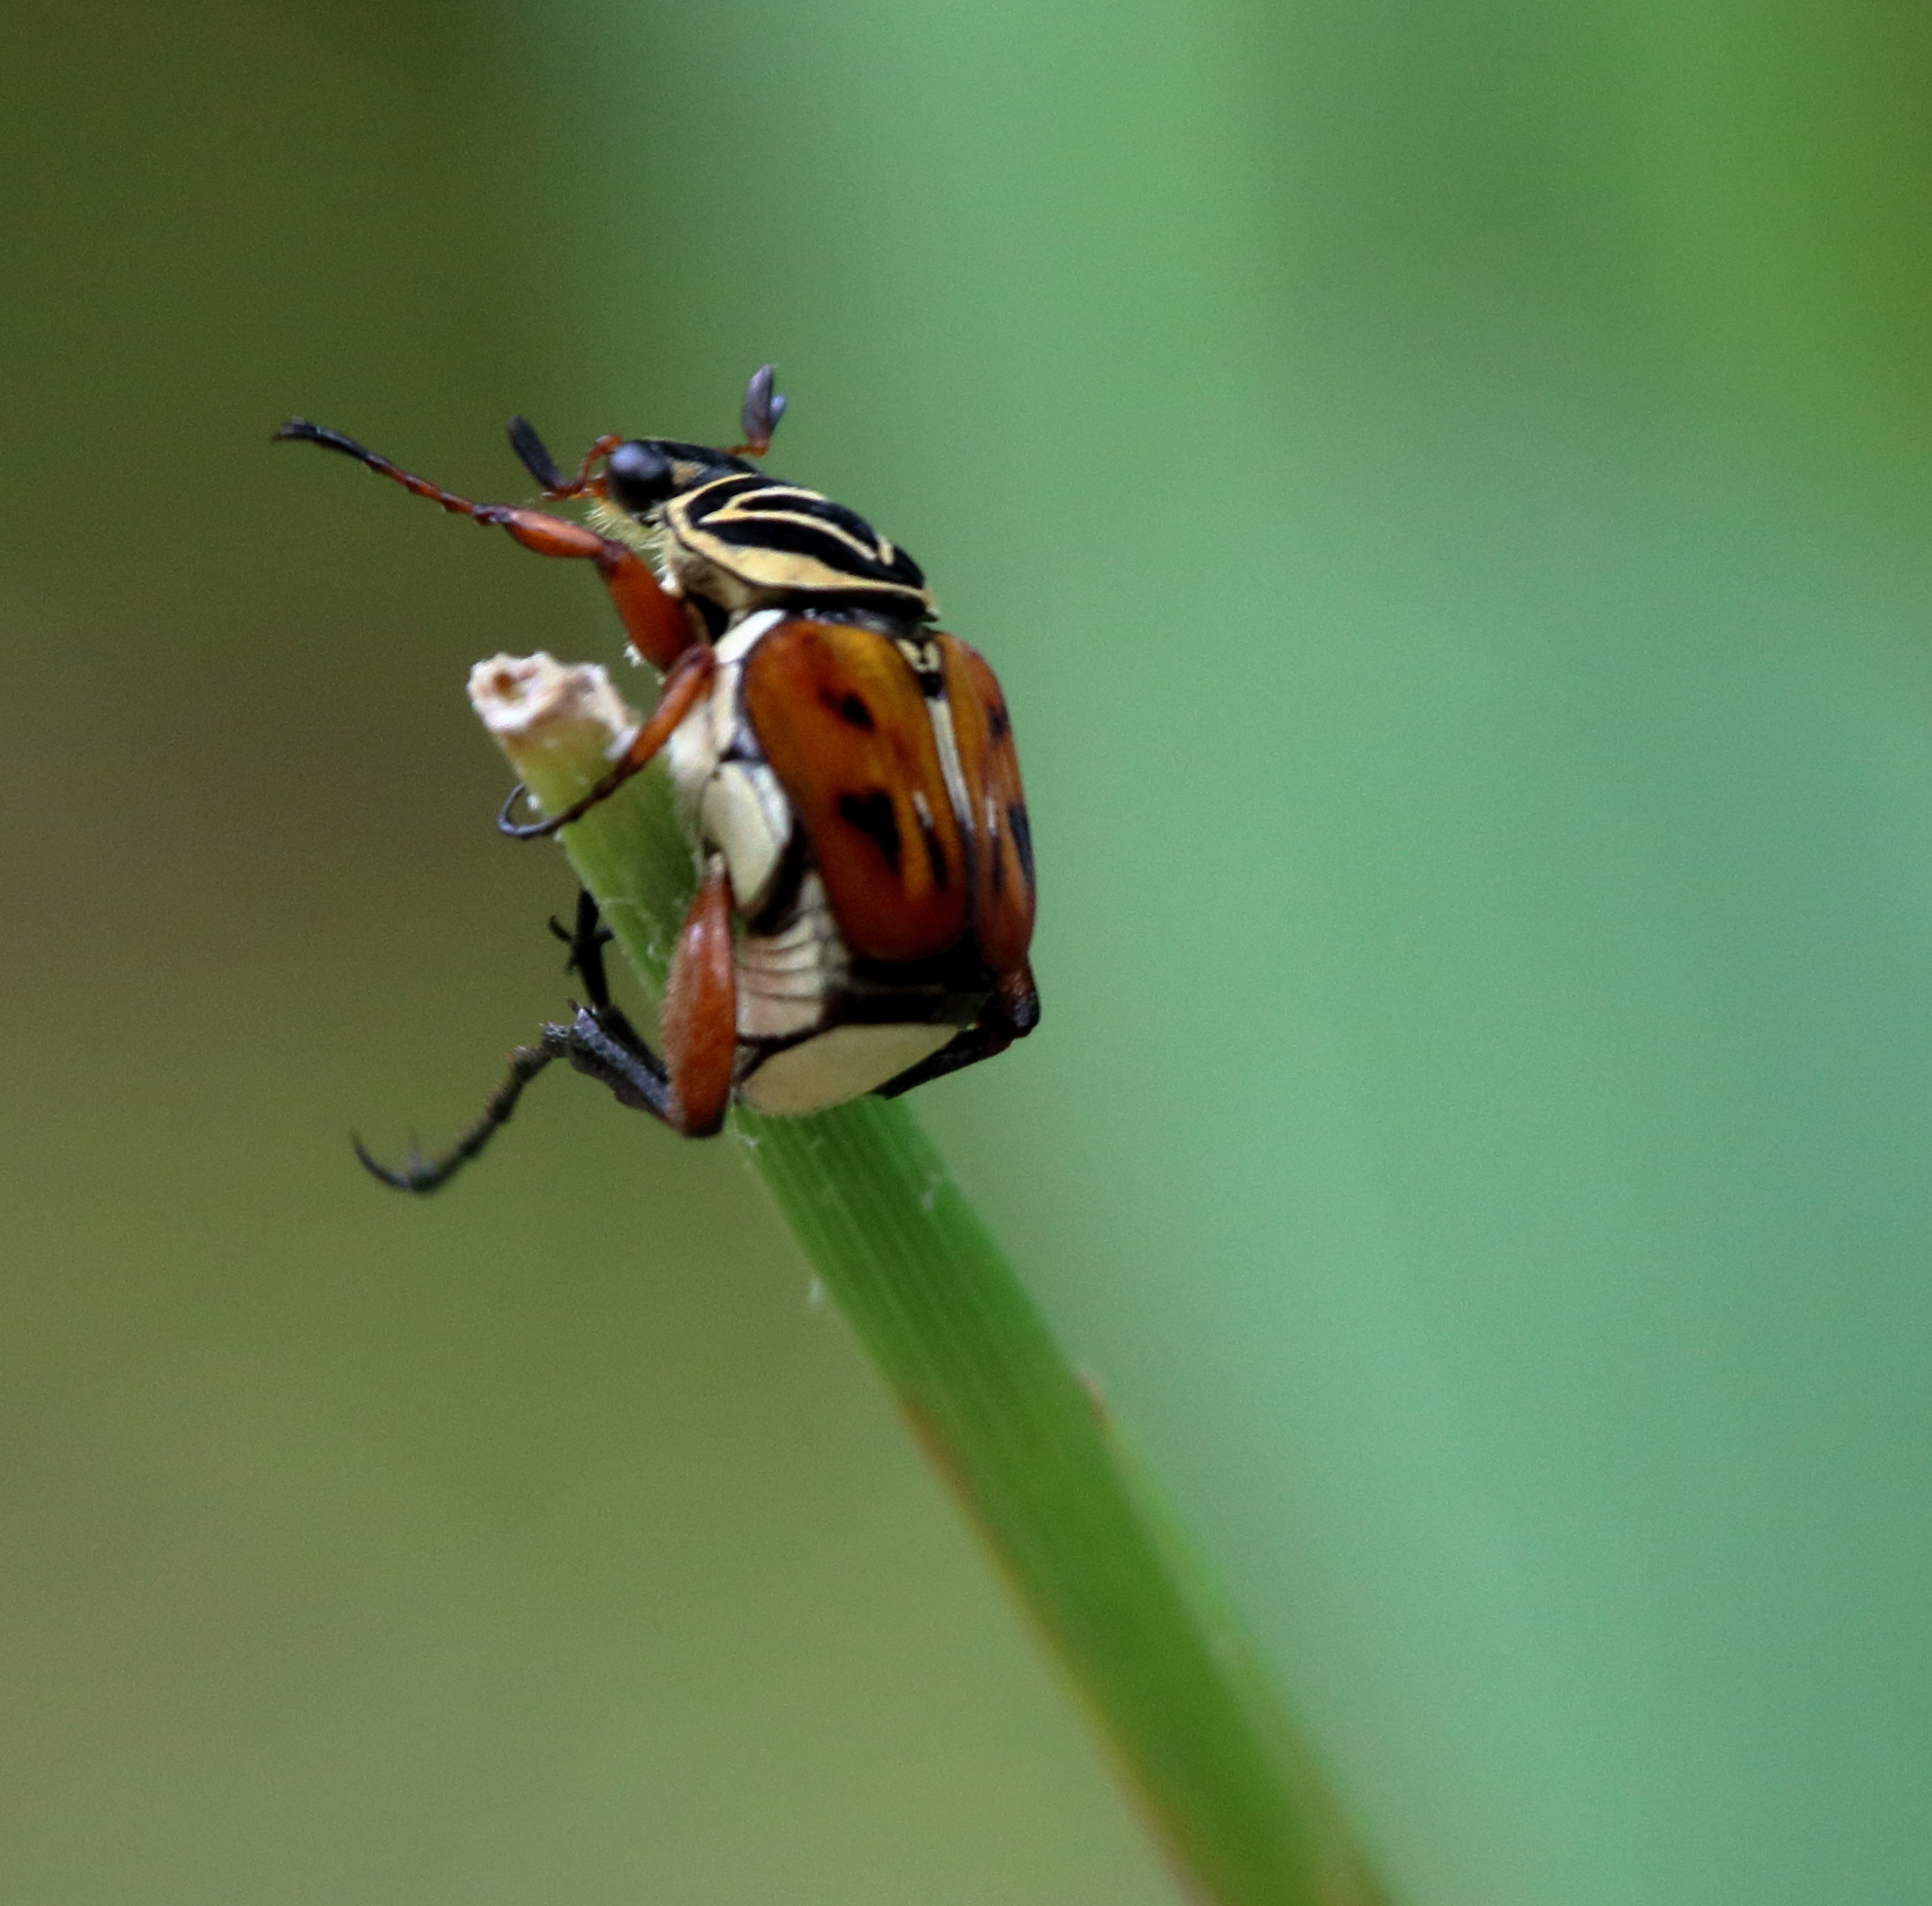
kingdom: Animalia
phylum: Arthropoda
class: Insecta
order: Coleoptera
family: Scarabaeidae
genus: Trigonopeltastes
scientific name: Trigonopeltastes delta
